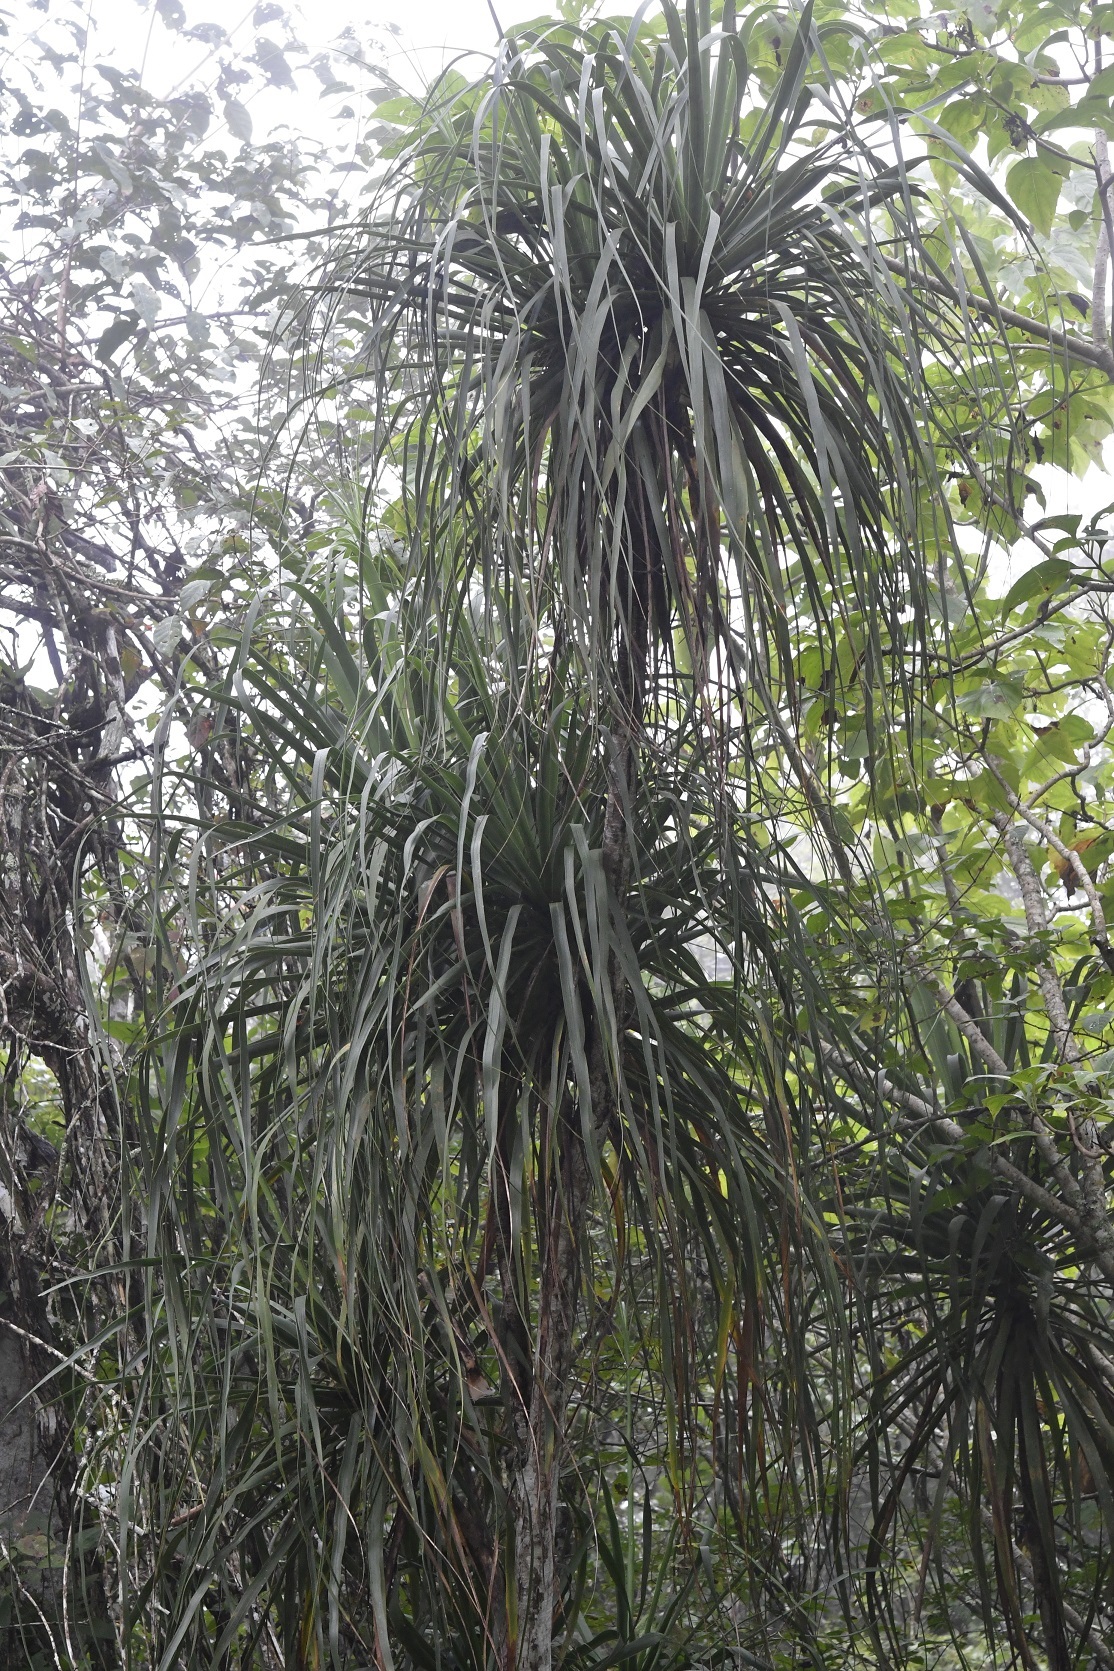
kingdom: Plantae
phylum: Tracheophyta
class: Liliopsida
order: Asparagales
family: Asparagaceae
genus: Beaucarnea
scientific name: Beaucarnea goldmanii
